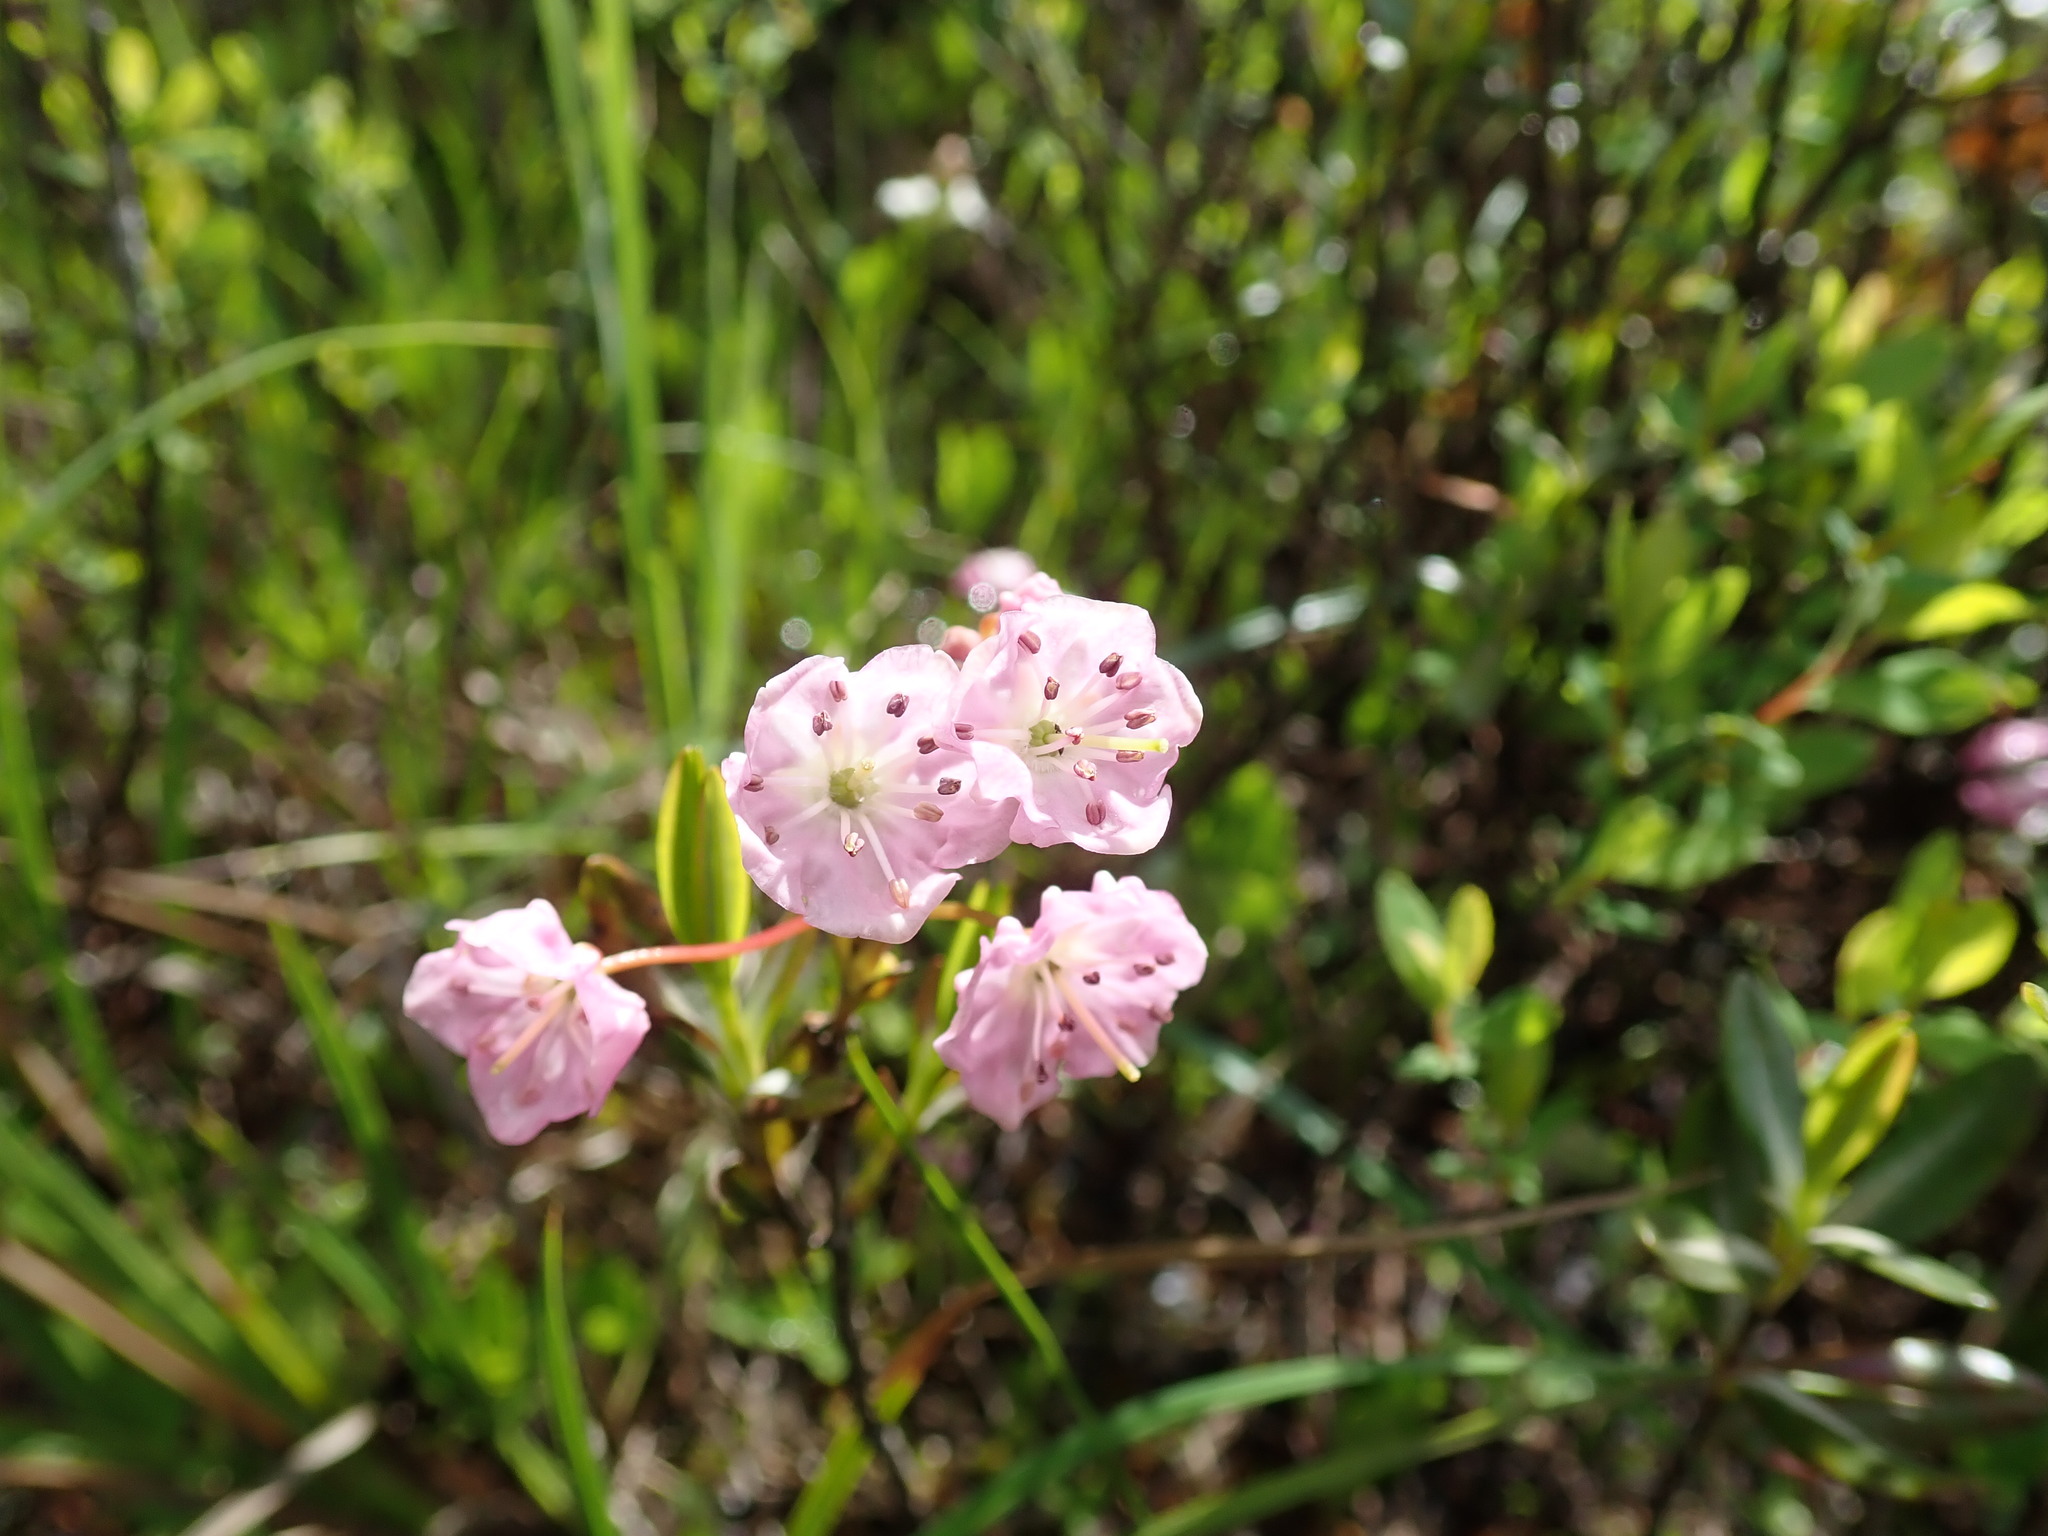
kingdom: Plantae
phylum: Tracheophyta
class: Magnoliopsida
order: Ericales
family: Ericaceae
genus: Kalmia
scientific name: Kalmia microphylla
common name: Alpine bog laurel
